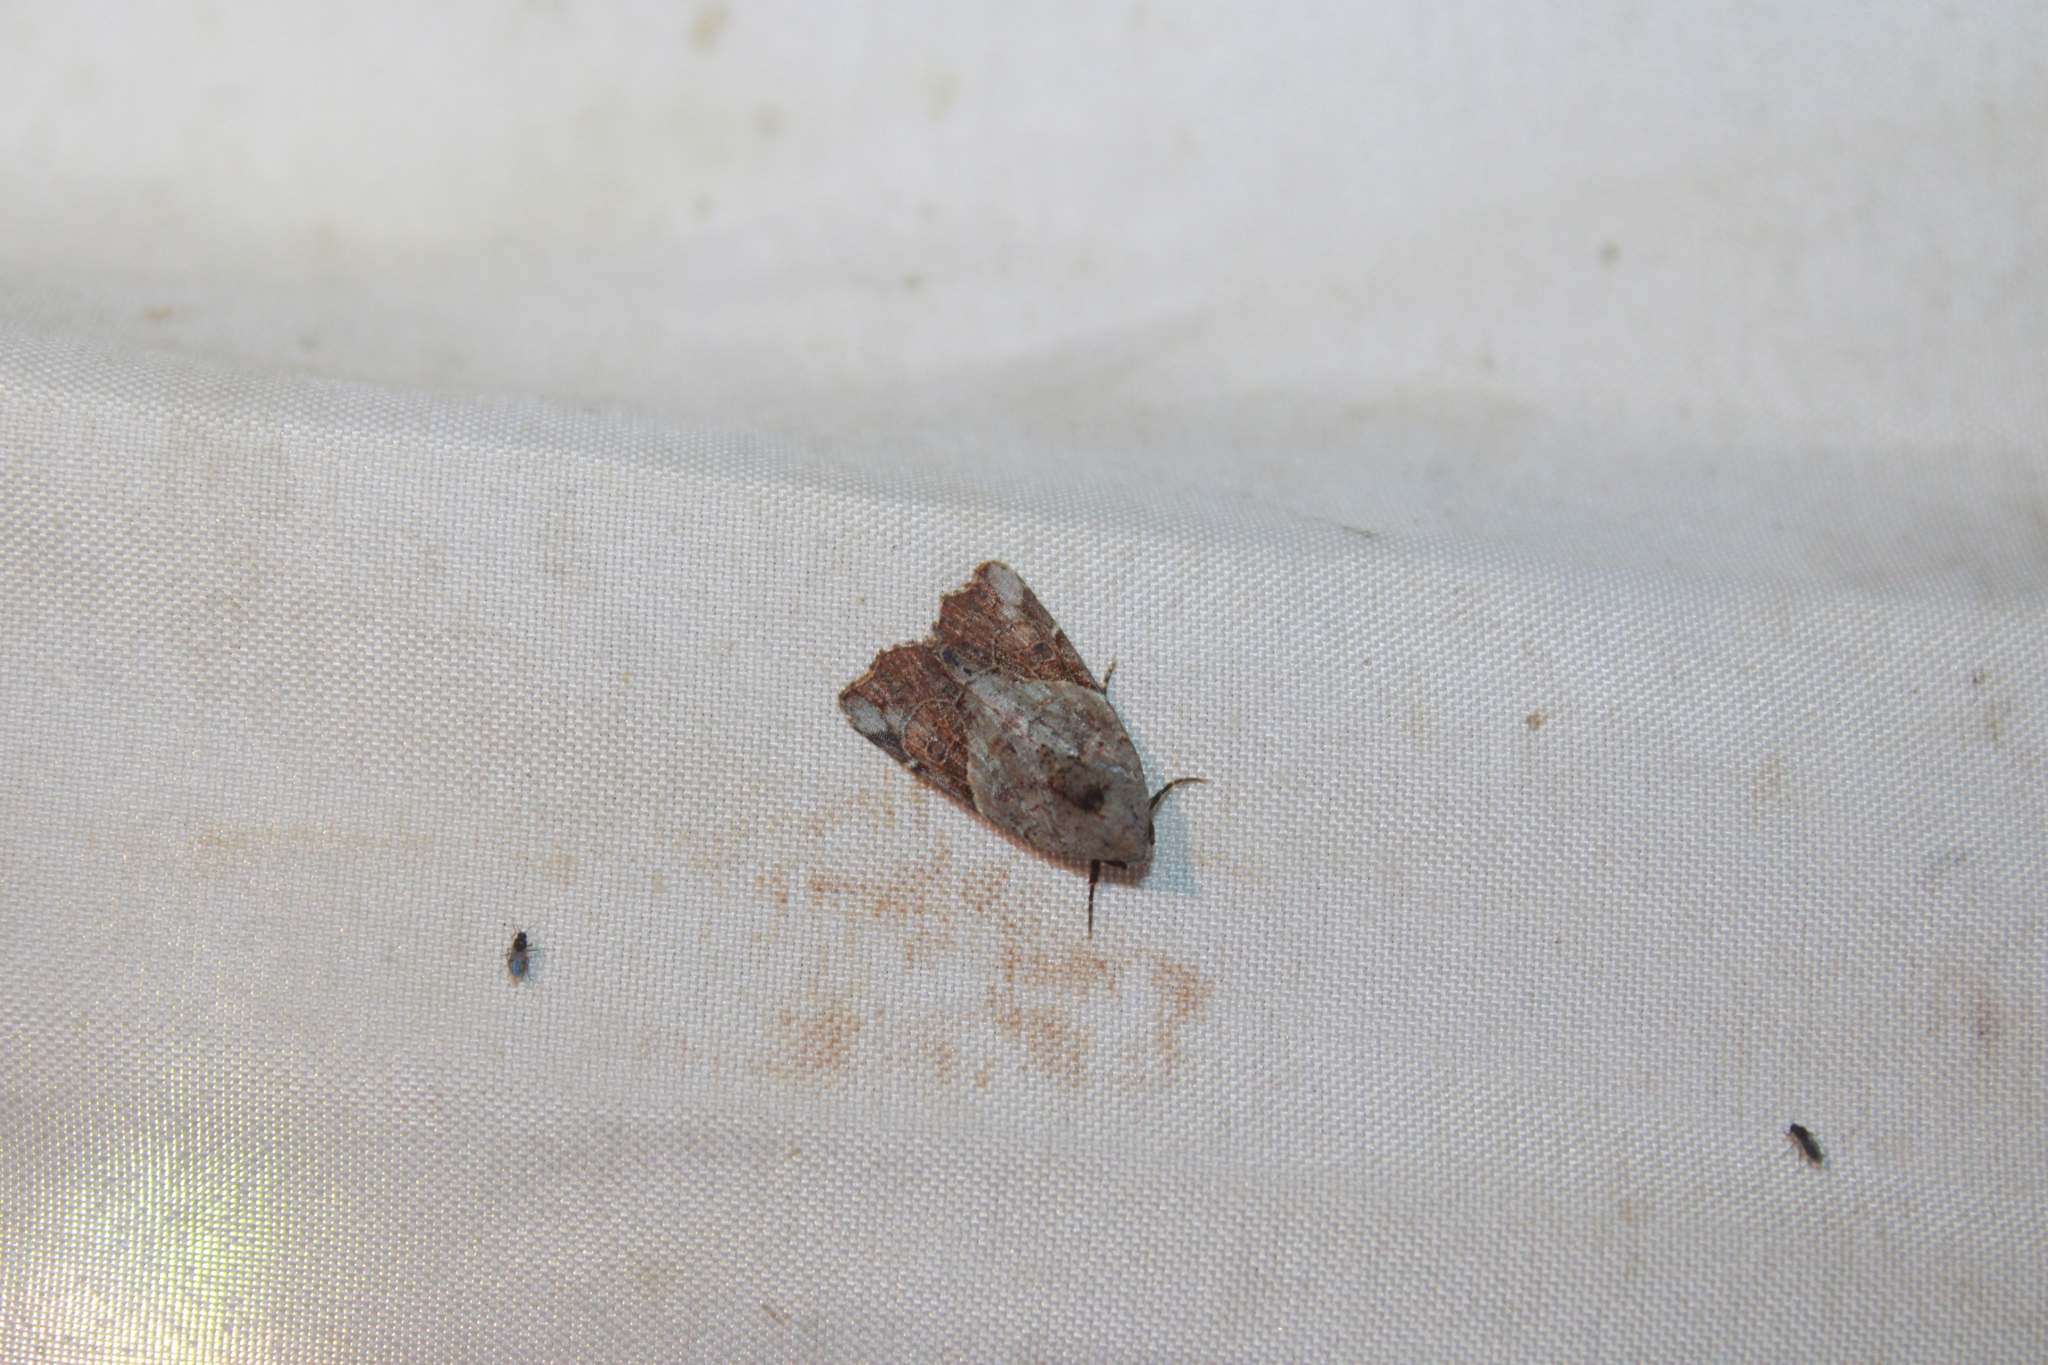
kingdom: Animalia
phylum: Arthropoda
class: Insecta
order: Lepidoptera
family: Noctuidae
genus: Gonodes
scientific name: Gonodes liquida
